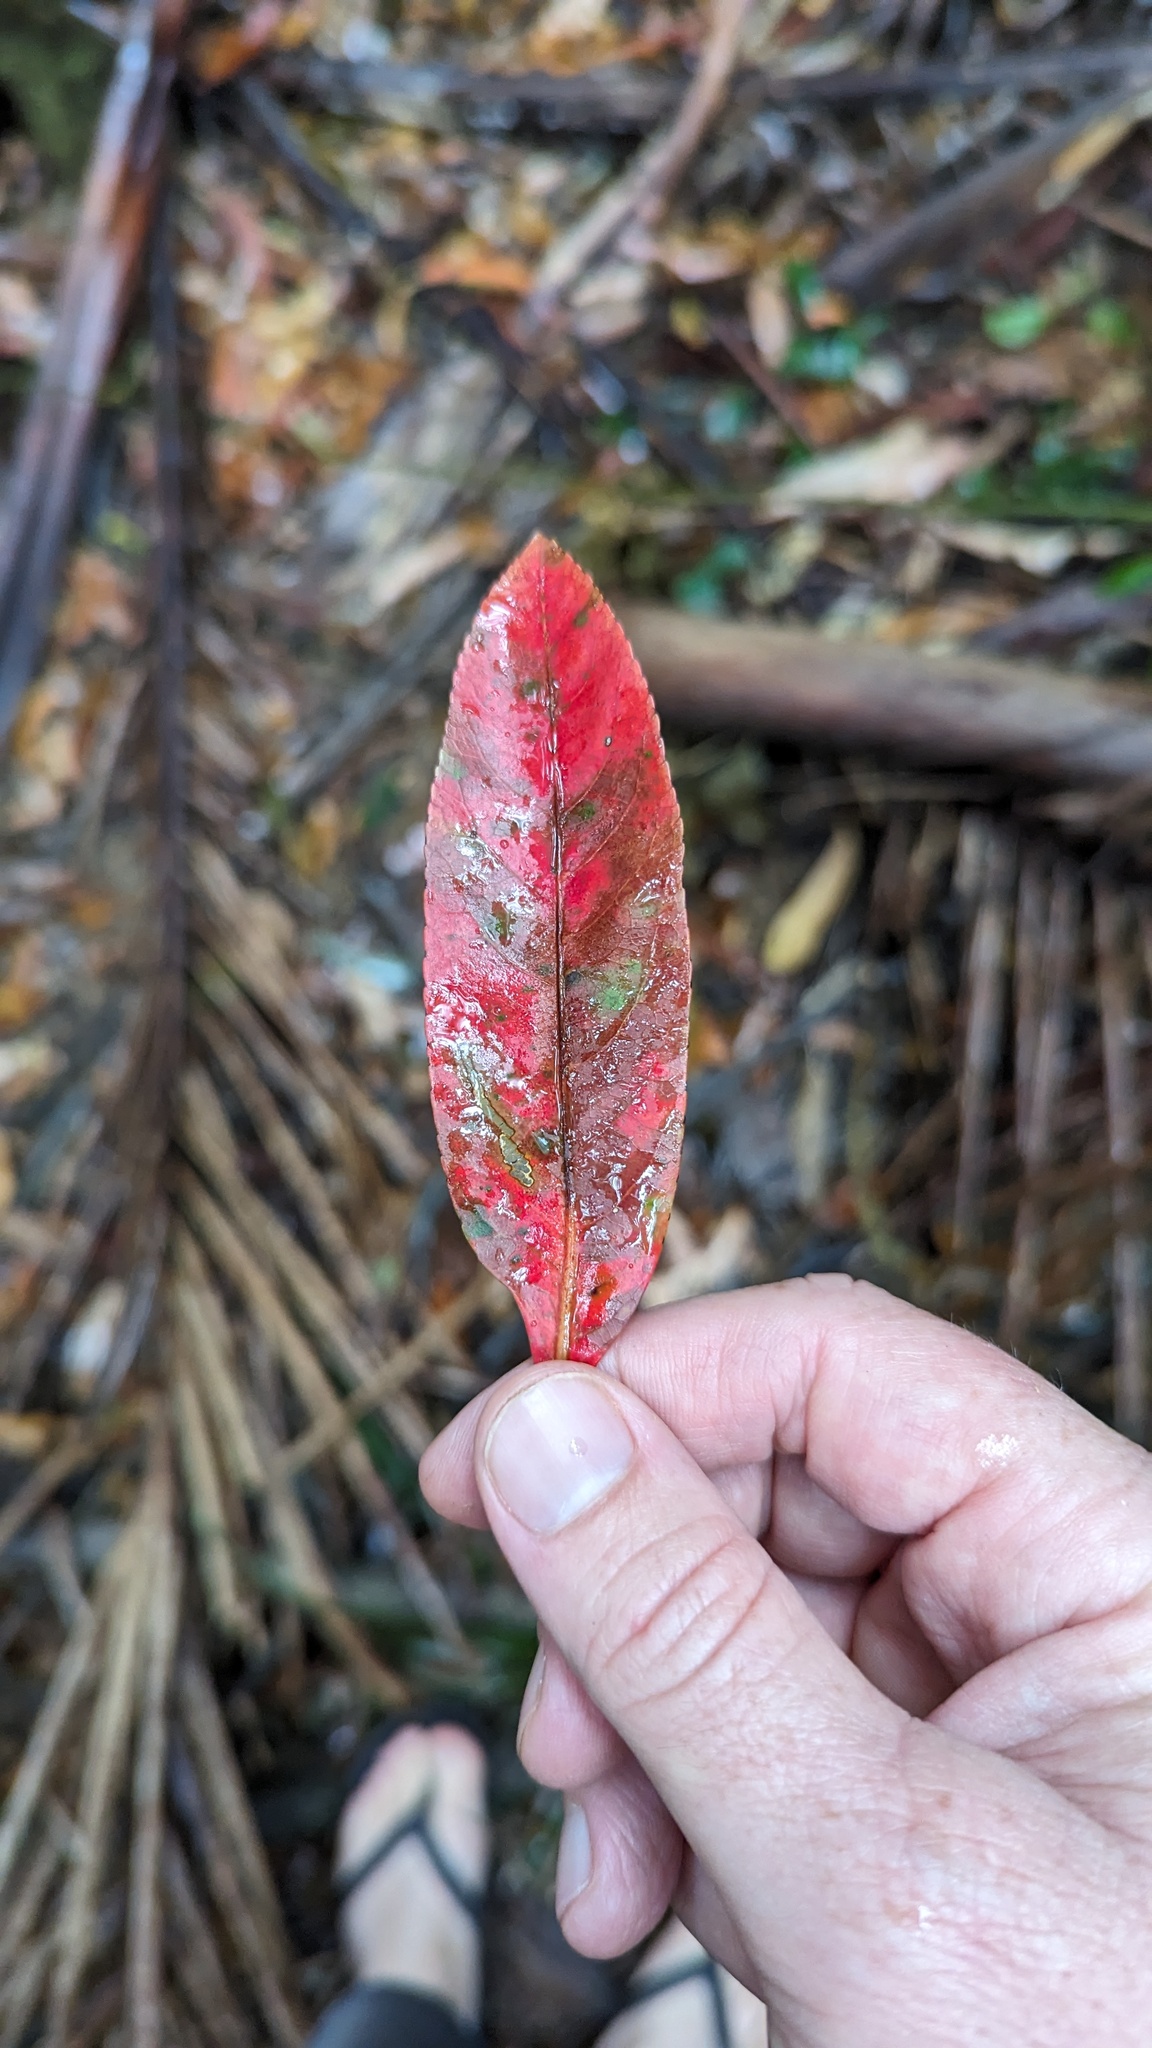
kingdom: Plantae
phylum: Tracheophyta
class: Magnoliopsida
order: Oxalidales
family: Elaeocarpaceae
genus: Elaeocarpus
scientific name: Elaeocarpus angustifolius
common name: Blue marble tree
